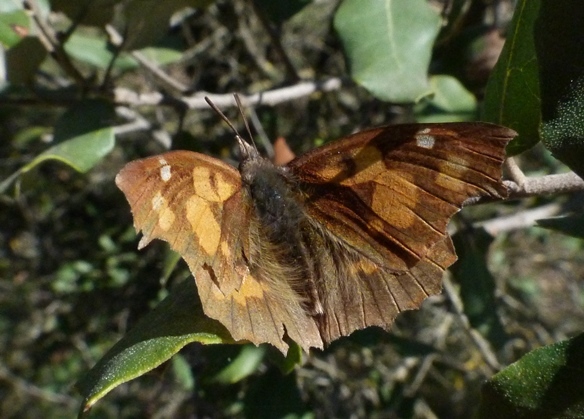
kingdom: Animalia
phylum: Arthropoda
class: Insecta
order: Lepidoptera
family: Nymphalidae
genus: Libythea
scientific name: Libythea celtis
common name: Nettle-tree butterfly
